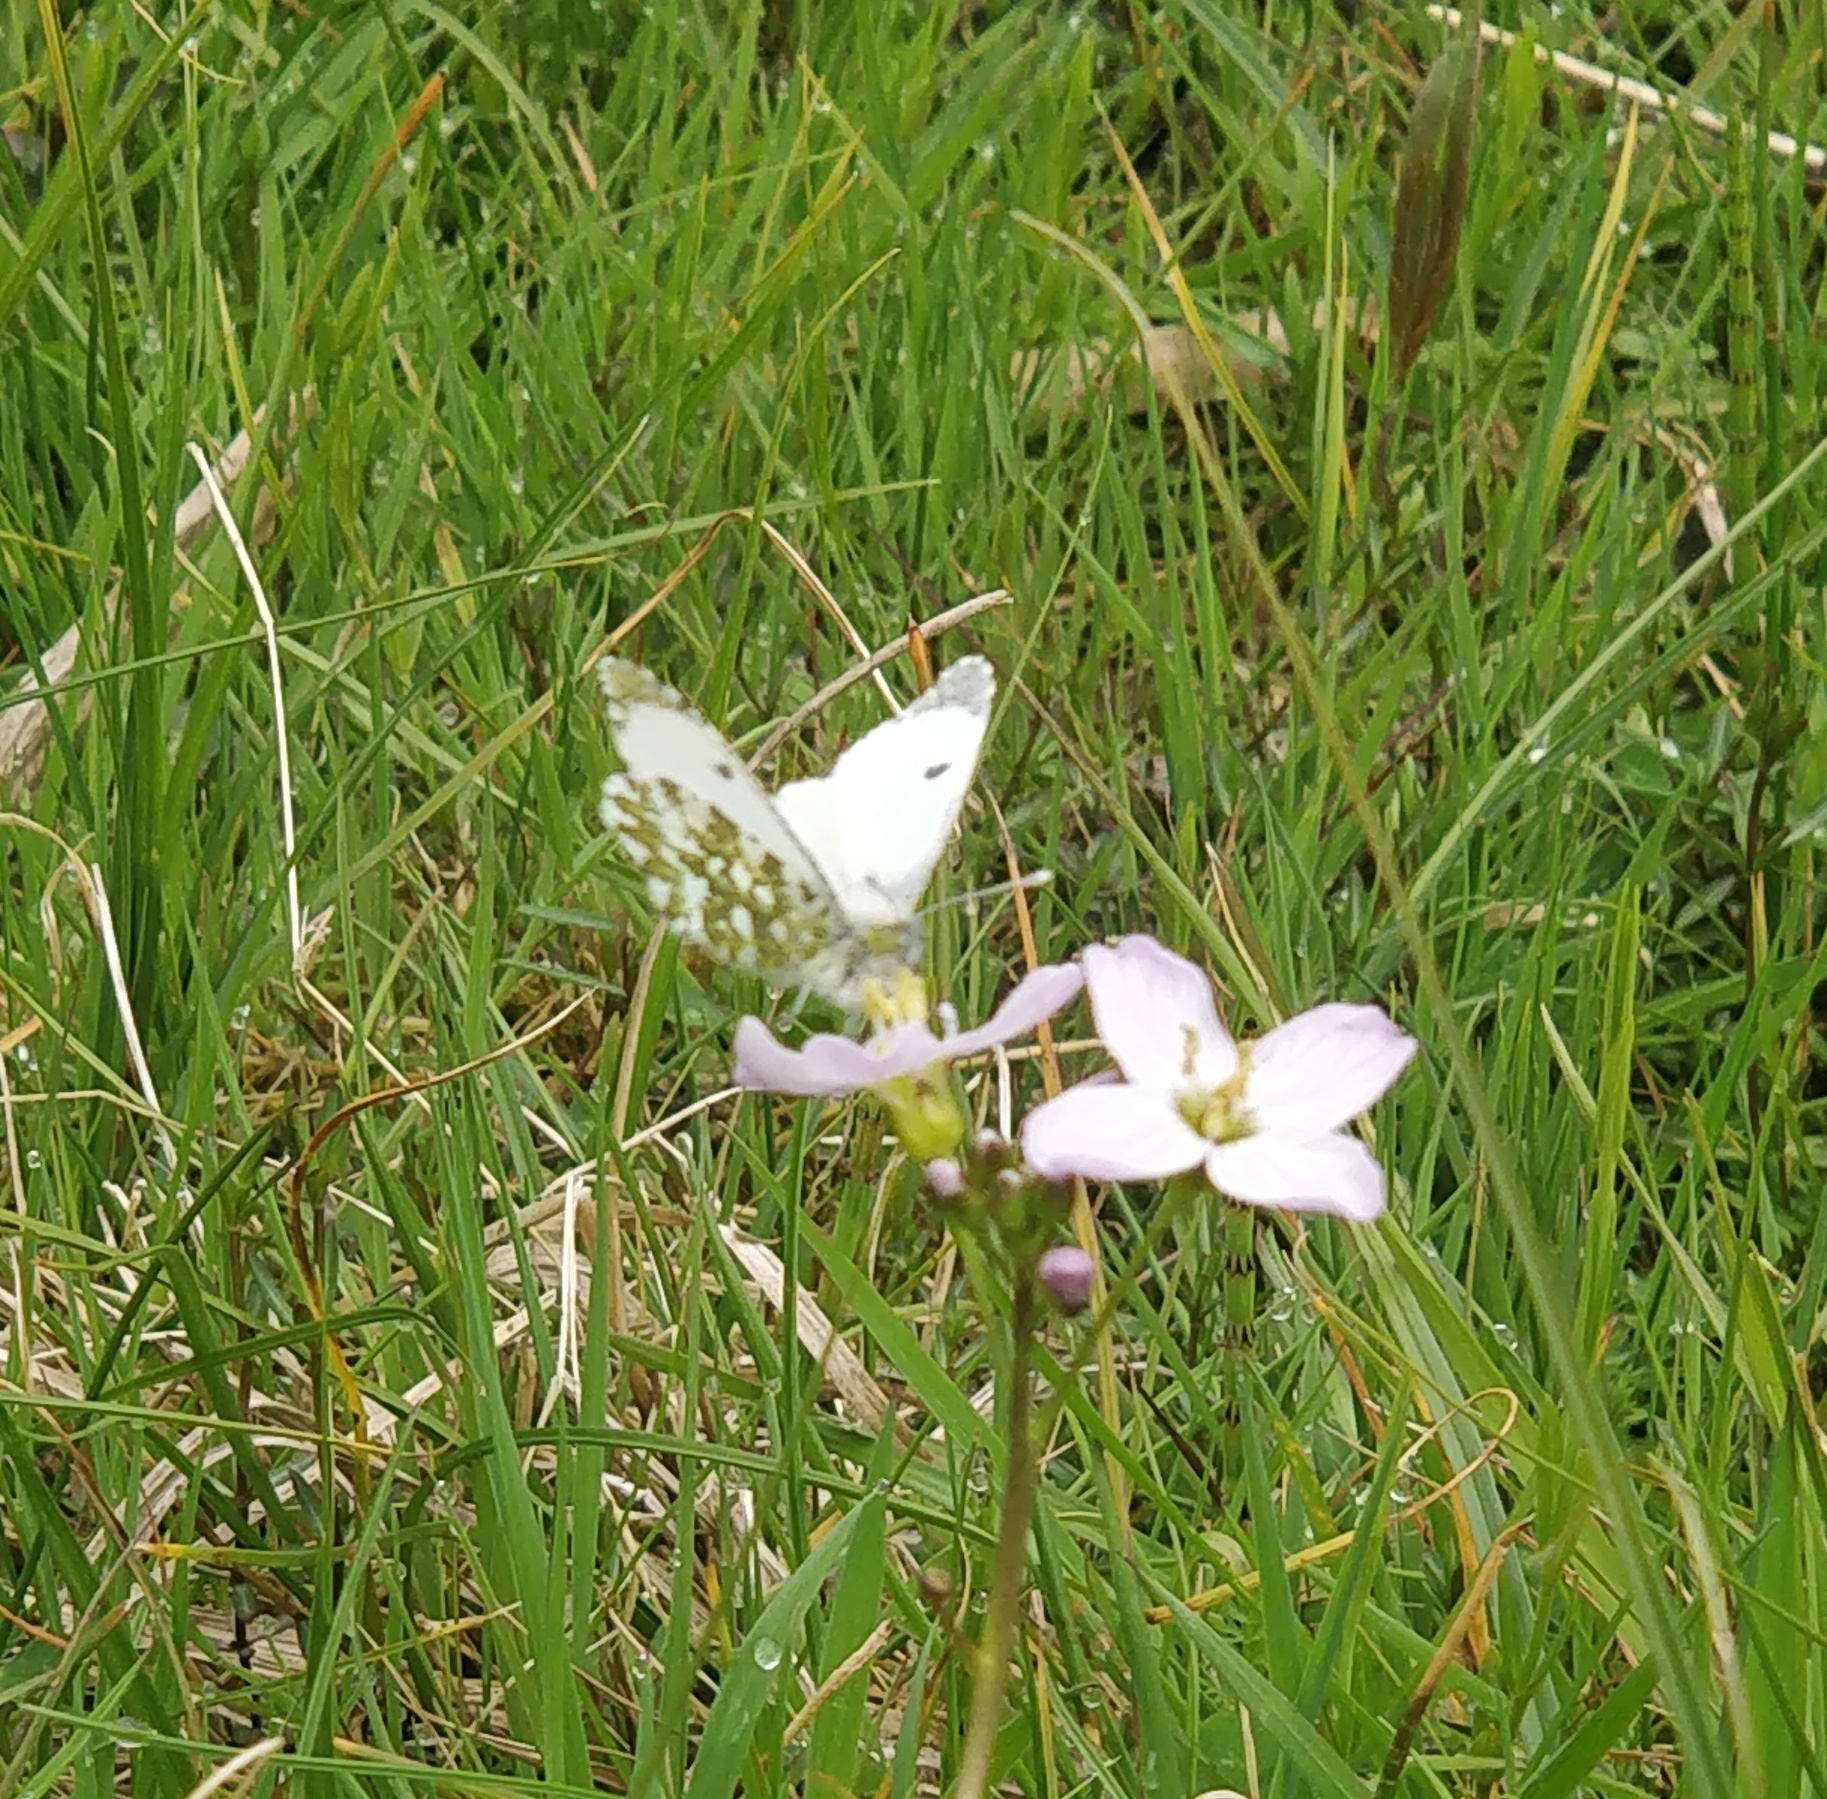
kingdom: Animalia
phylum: Arthropoda
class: Insecta
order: Lepidoptera
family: Pieridae
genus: Anthocharis
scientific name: Anthocharis cardamines
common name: Orange-tip
